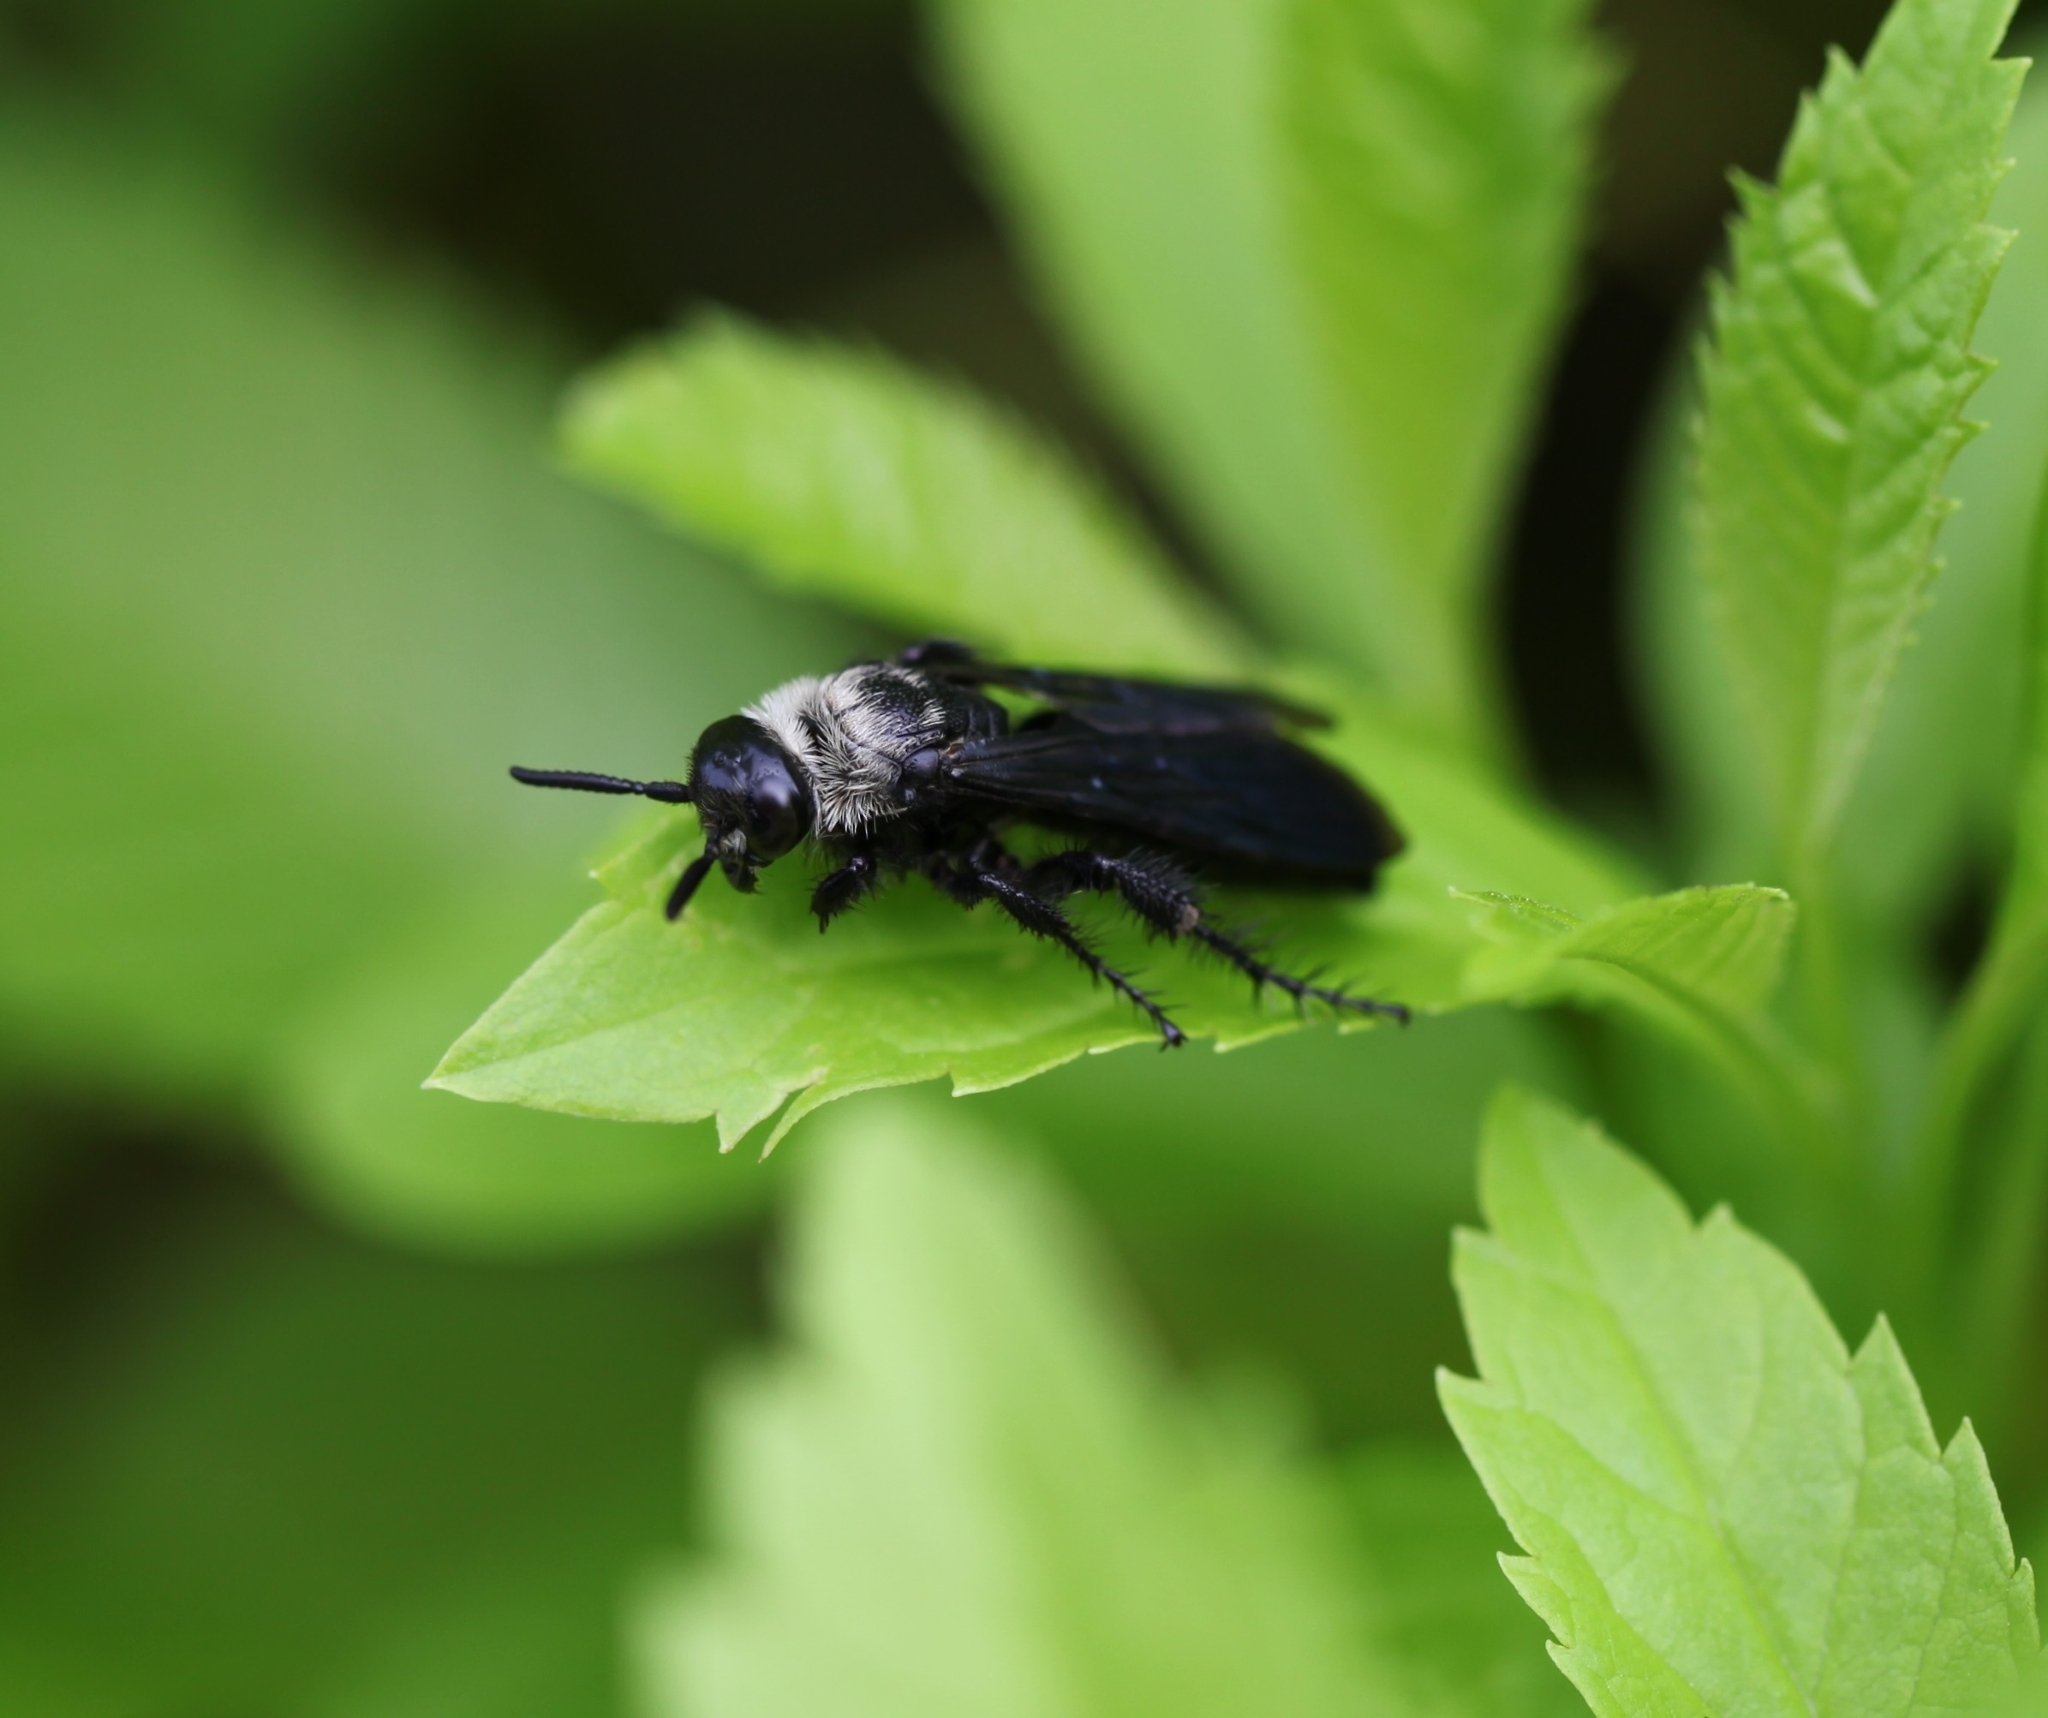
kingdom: Animalia
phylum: Arthropoda
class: Insecta
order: Hymenoptera
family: Scoliidae
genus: Campsomeriella
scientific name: Campsomeriella collaris
